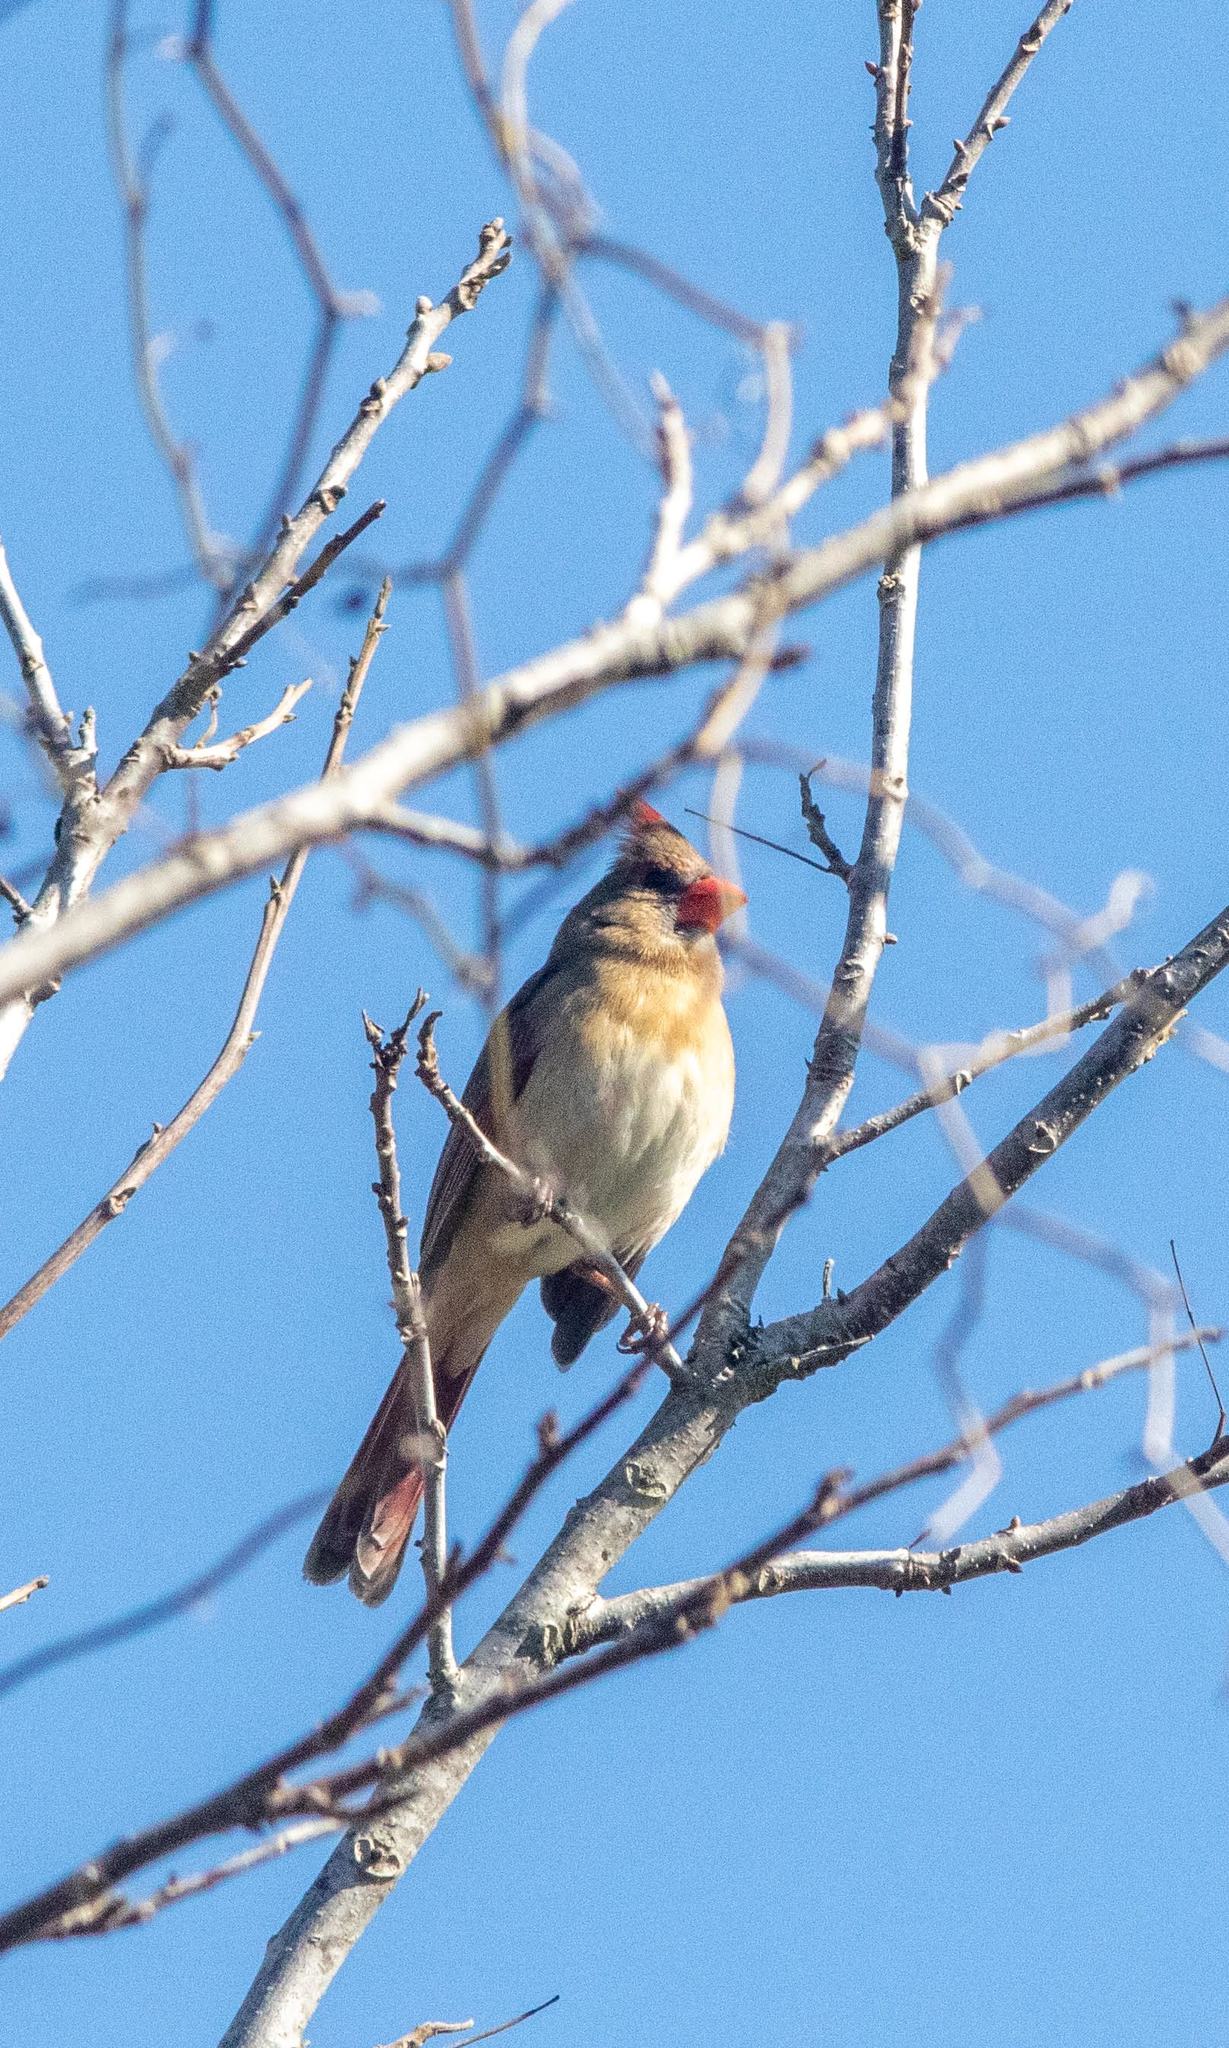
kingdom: Animalia
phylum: Chordata
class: Aves
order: Passeriformes
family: Cardinalidae
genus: Cardinalis
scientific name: Cardinalis cardinalis
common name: Northern cardinal
